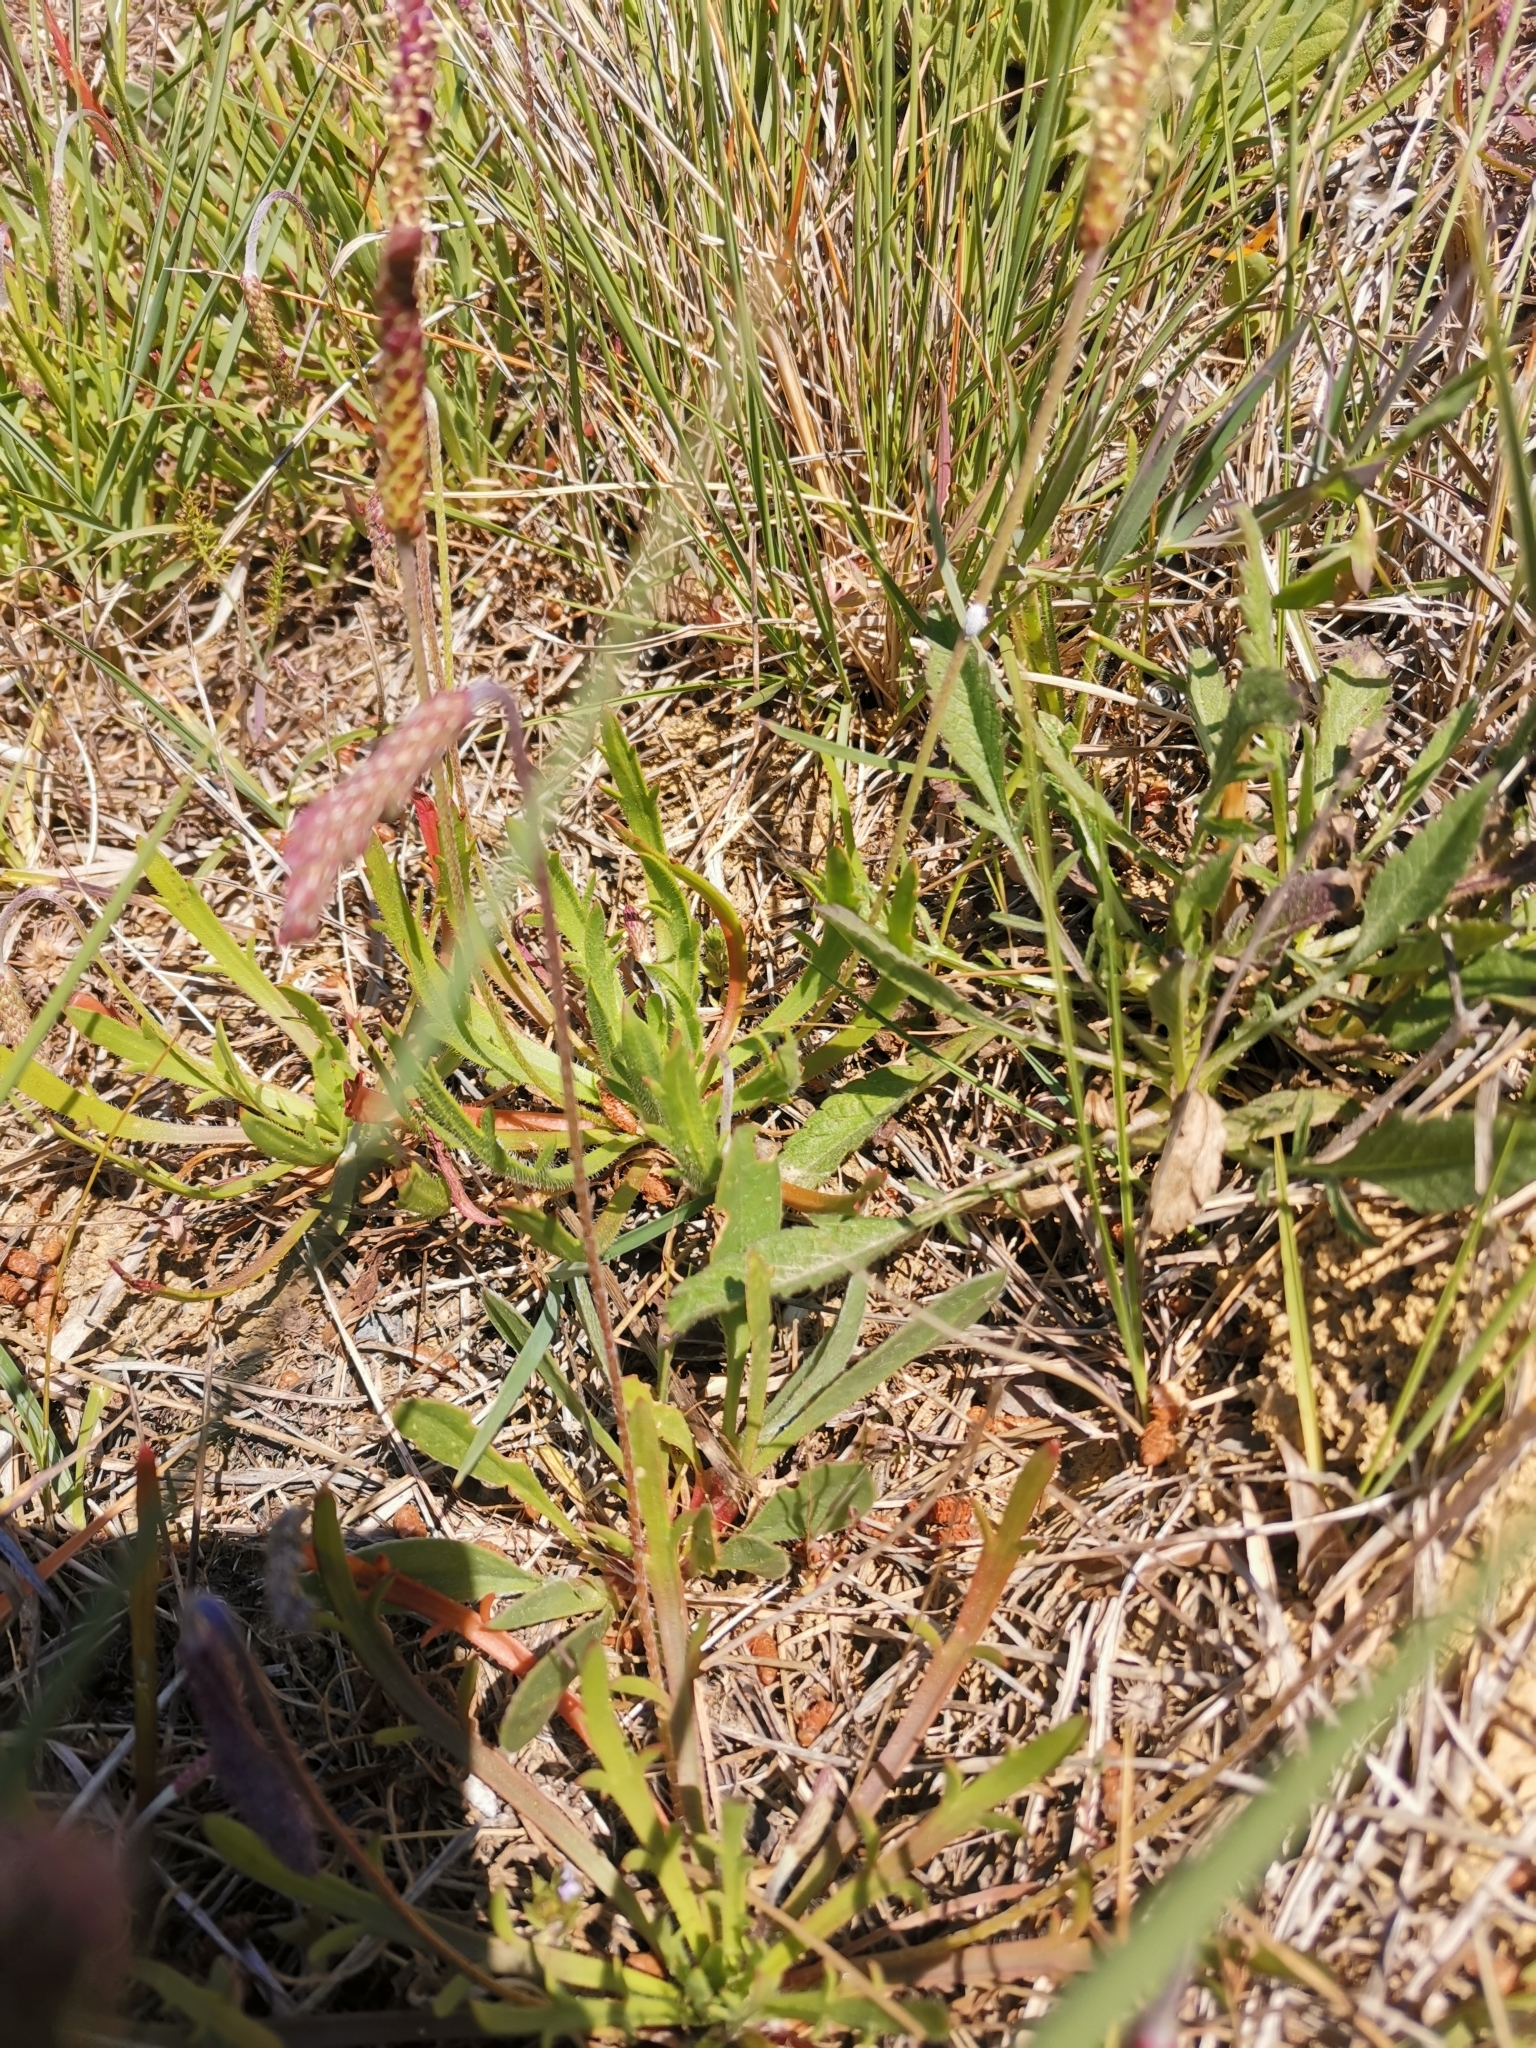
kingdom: Plantae
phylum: Tracheophyta
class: Magnoliopsida
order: Lamiales
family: Plantaginaceae
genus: Plantago
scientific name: Plantago coronopus
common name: Buck's-horn plantain
